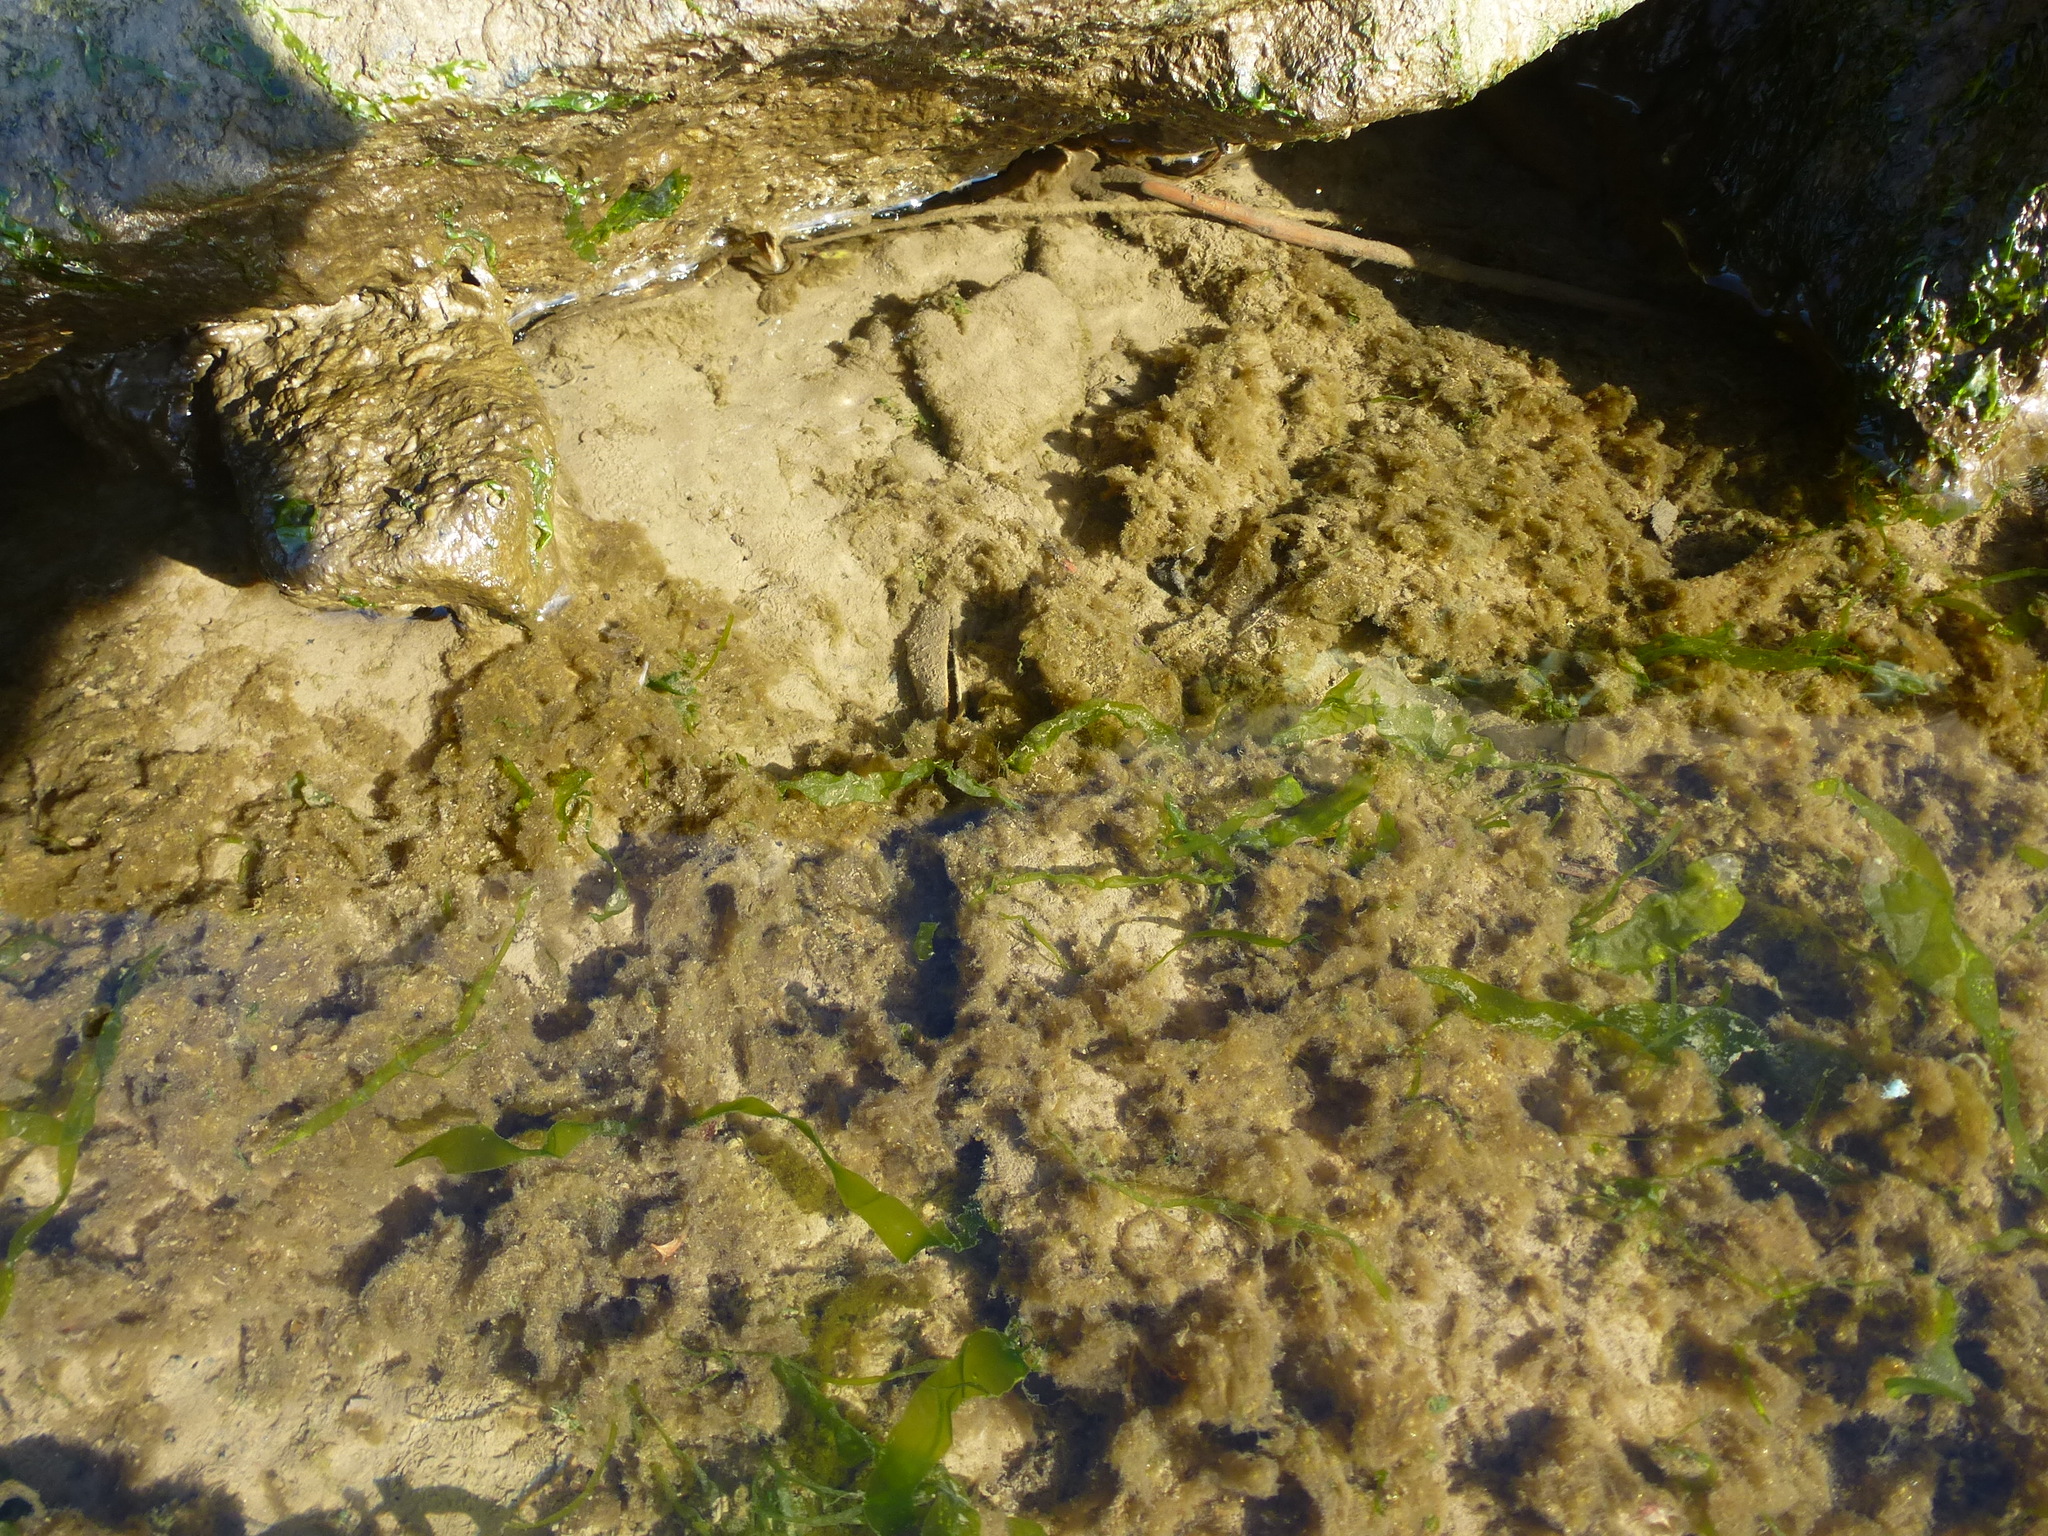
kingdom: Animalia
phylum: Mollusca
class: Bivalvia
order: Mytilida
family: Mytilidae
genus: Geukensia
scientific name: Geukensia demissa
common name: Ribbed mussel
